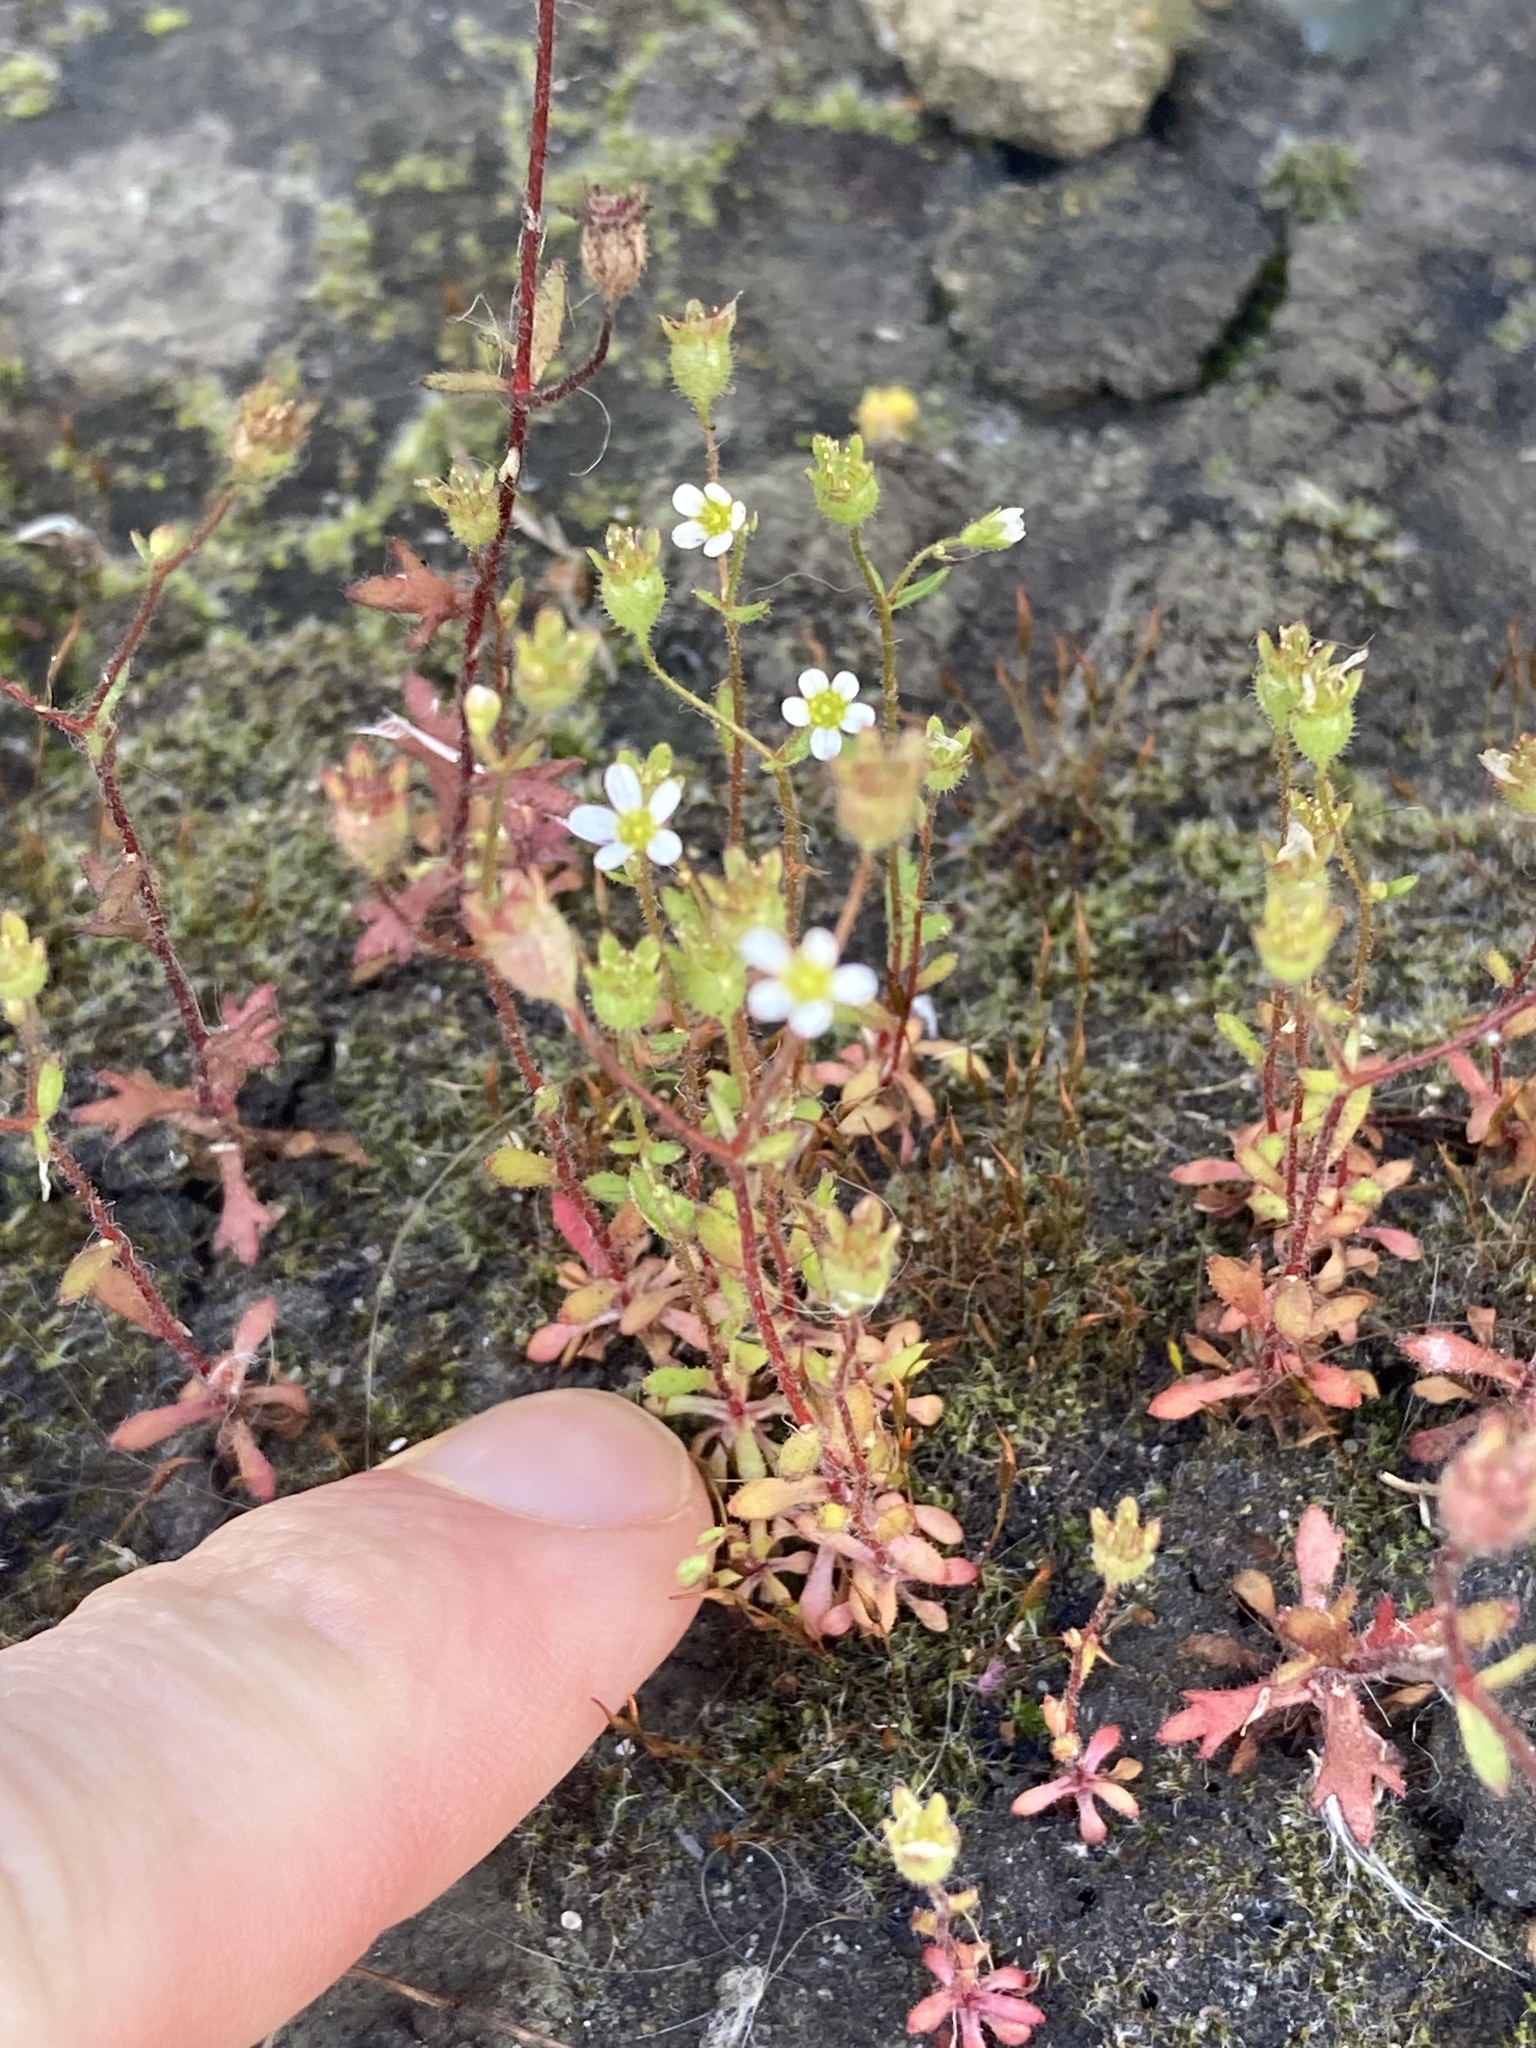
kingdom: Plantae
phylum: Tracheophyta
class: Magnoliopsida
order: Saxifragales
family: Saxifragaceae
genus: Saxifraga
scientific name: Saxifraga tridactylites
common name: Rue-leaved saxifrage
